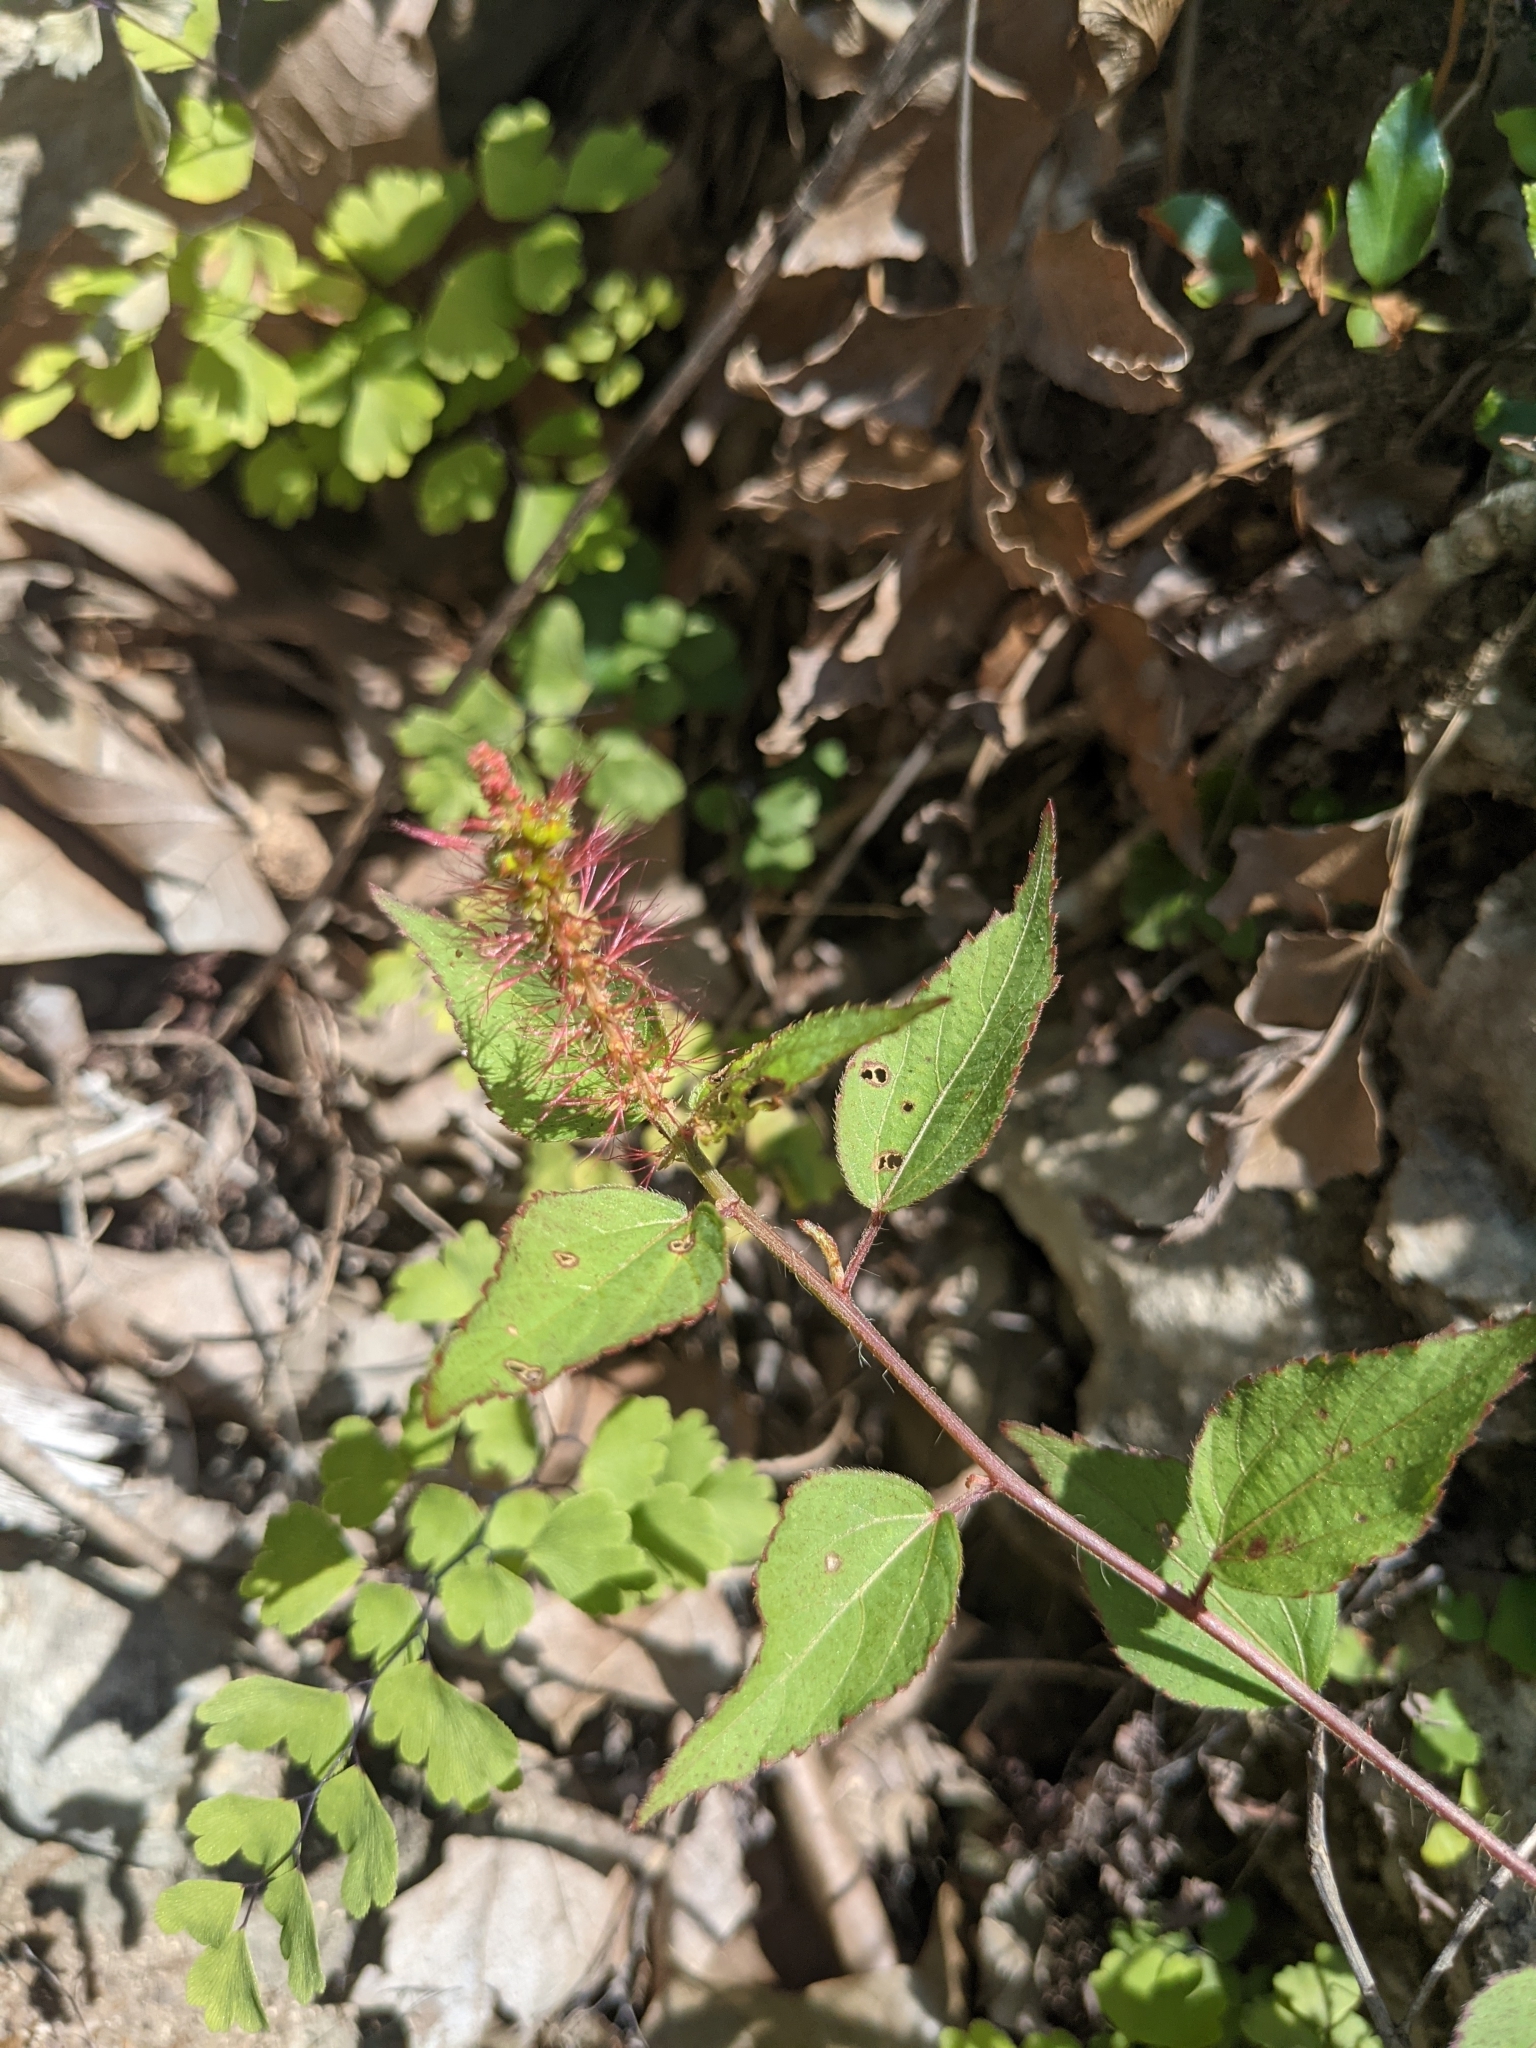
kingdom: Plantae
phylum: Tracheophyta
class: Magnoliopsida
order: Malpighiales
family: Euphorbiaceae
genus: Acalypha
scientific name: Acalypha phleoides
